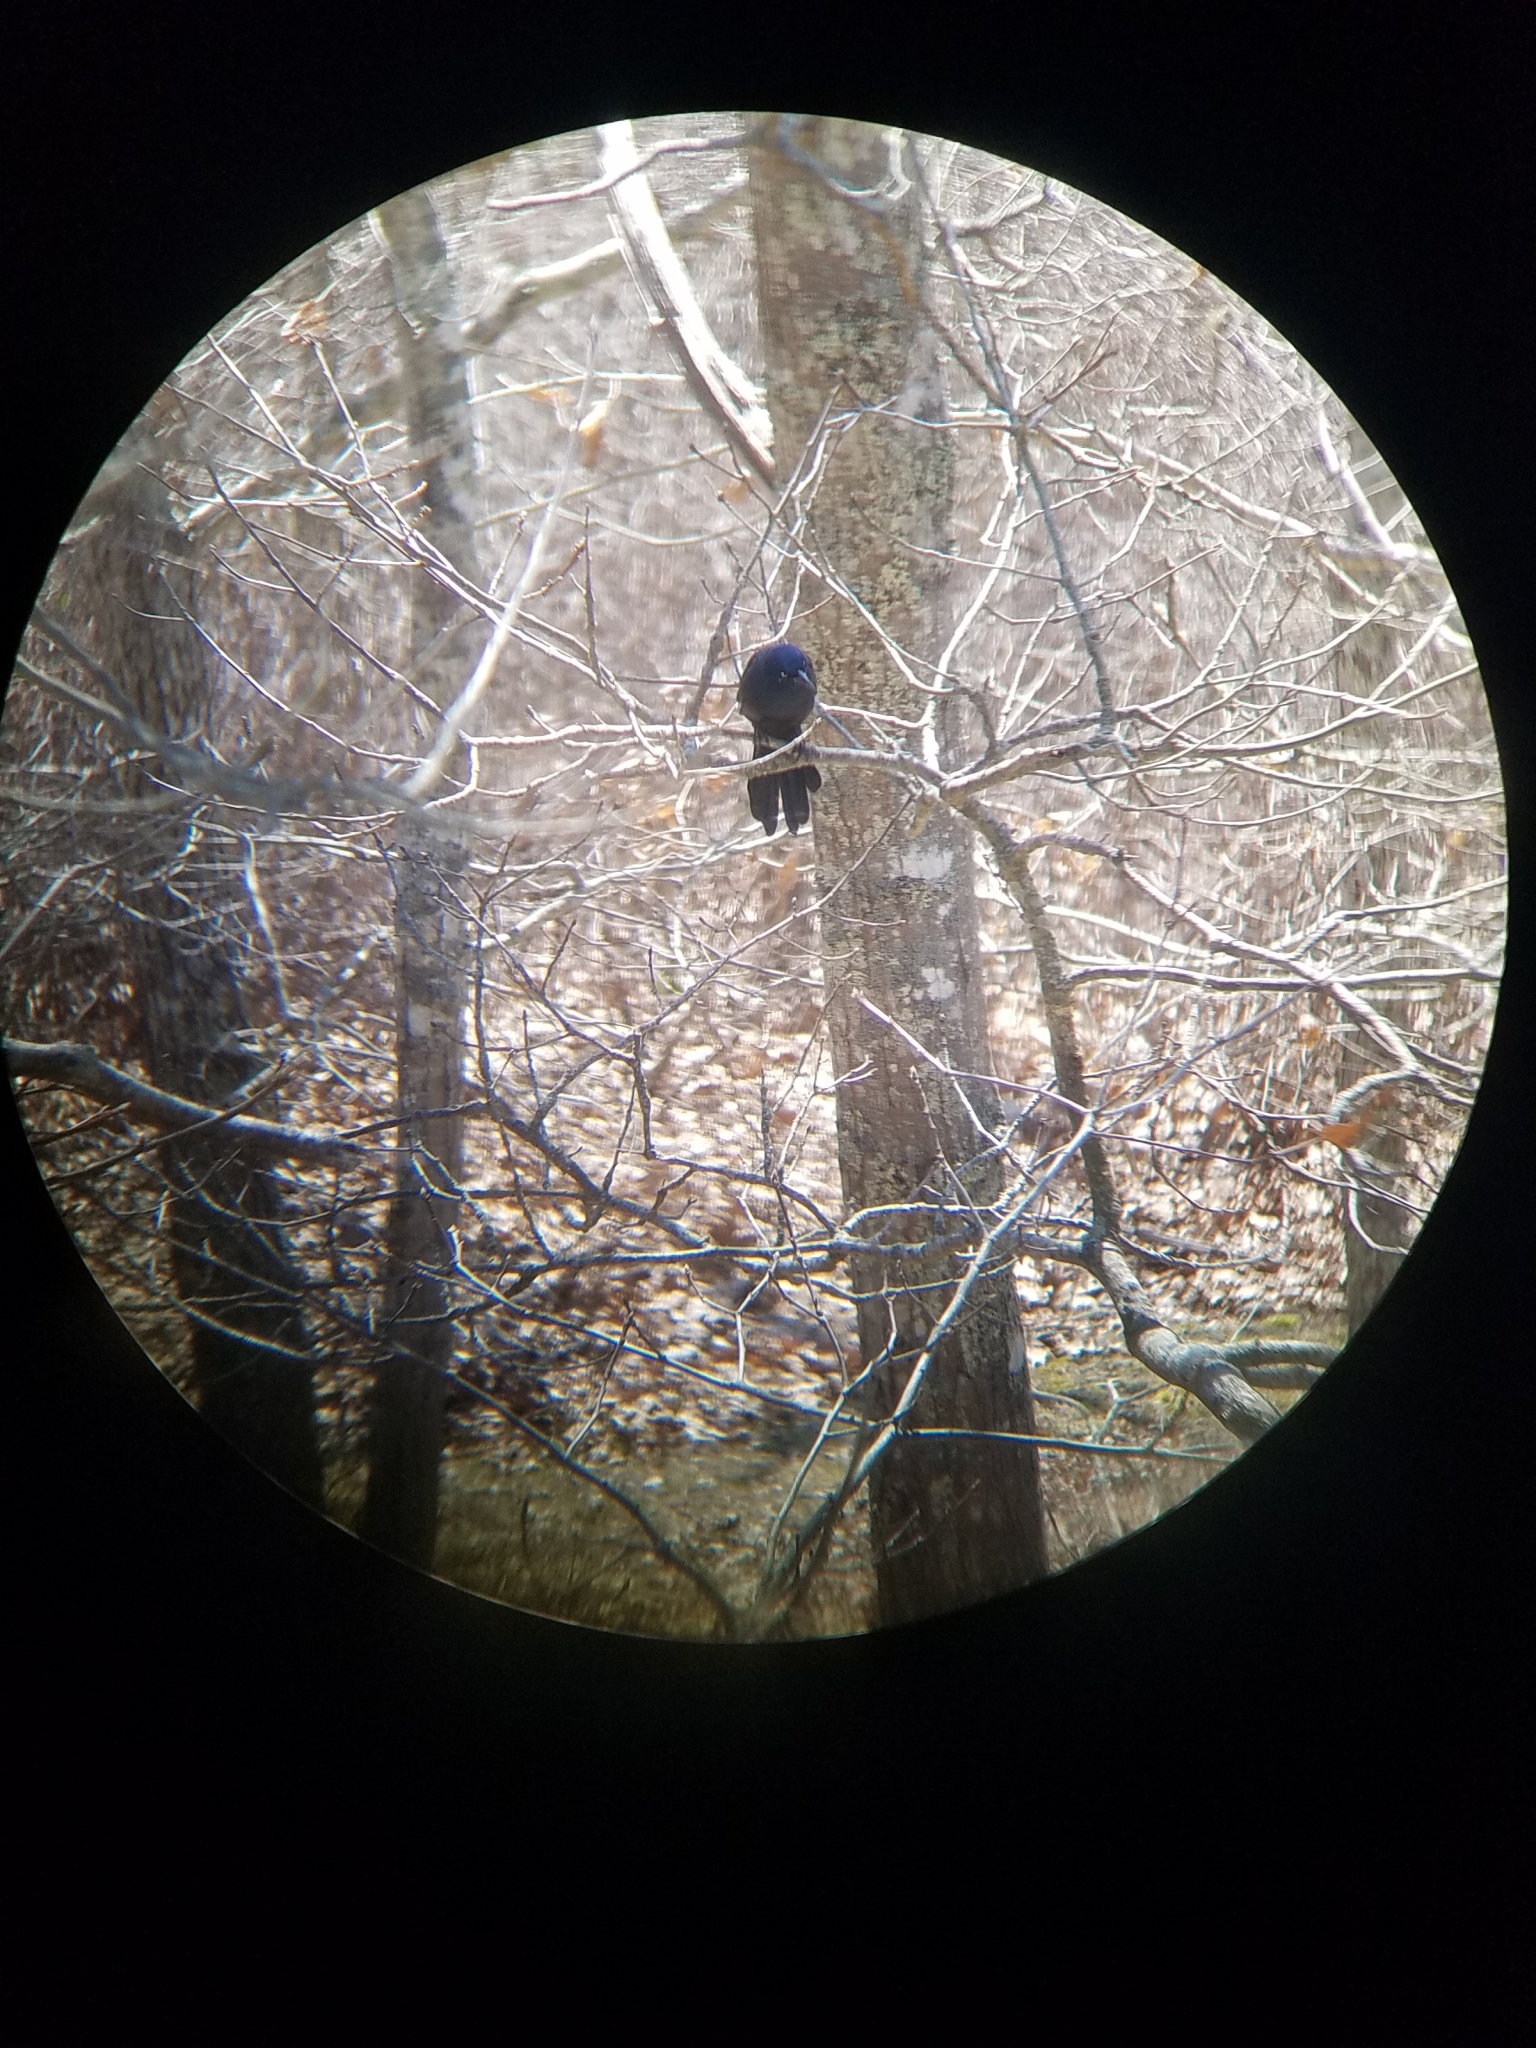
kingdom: Animalia
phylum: Chordata
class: Aves
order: Passeriformes
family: Icteridae
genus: Quiscalus
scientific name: Quiscalus quiscula
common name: Common grackle
